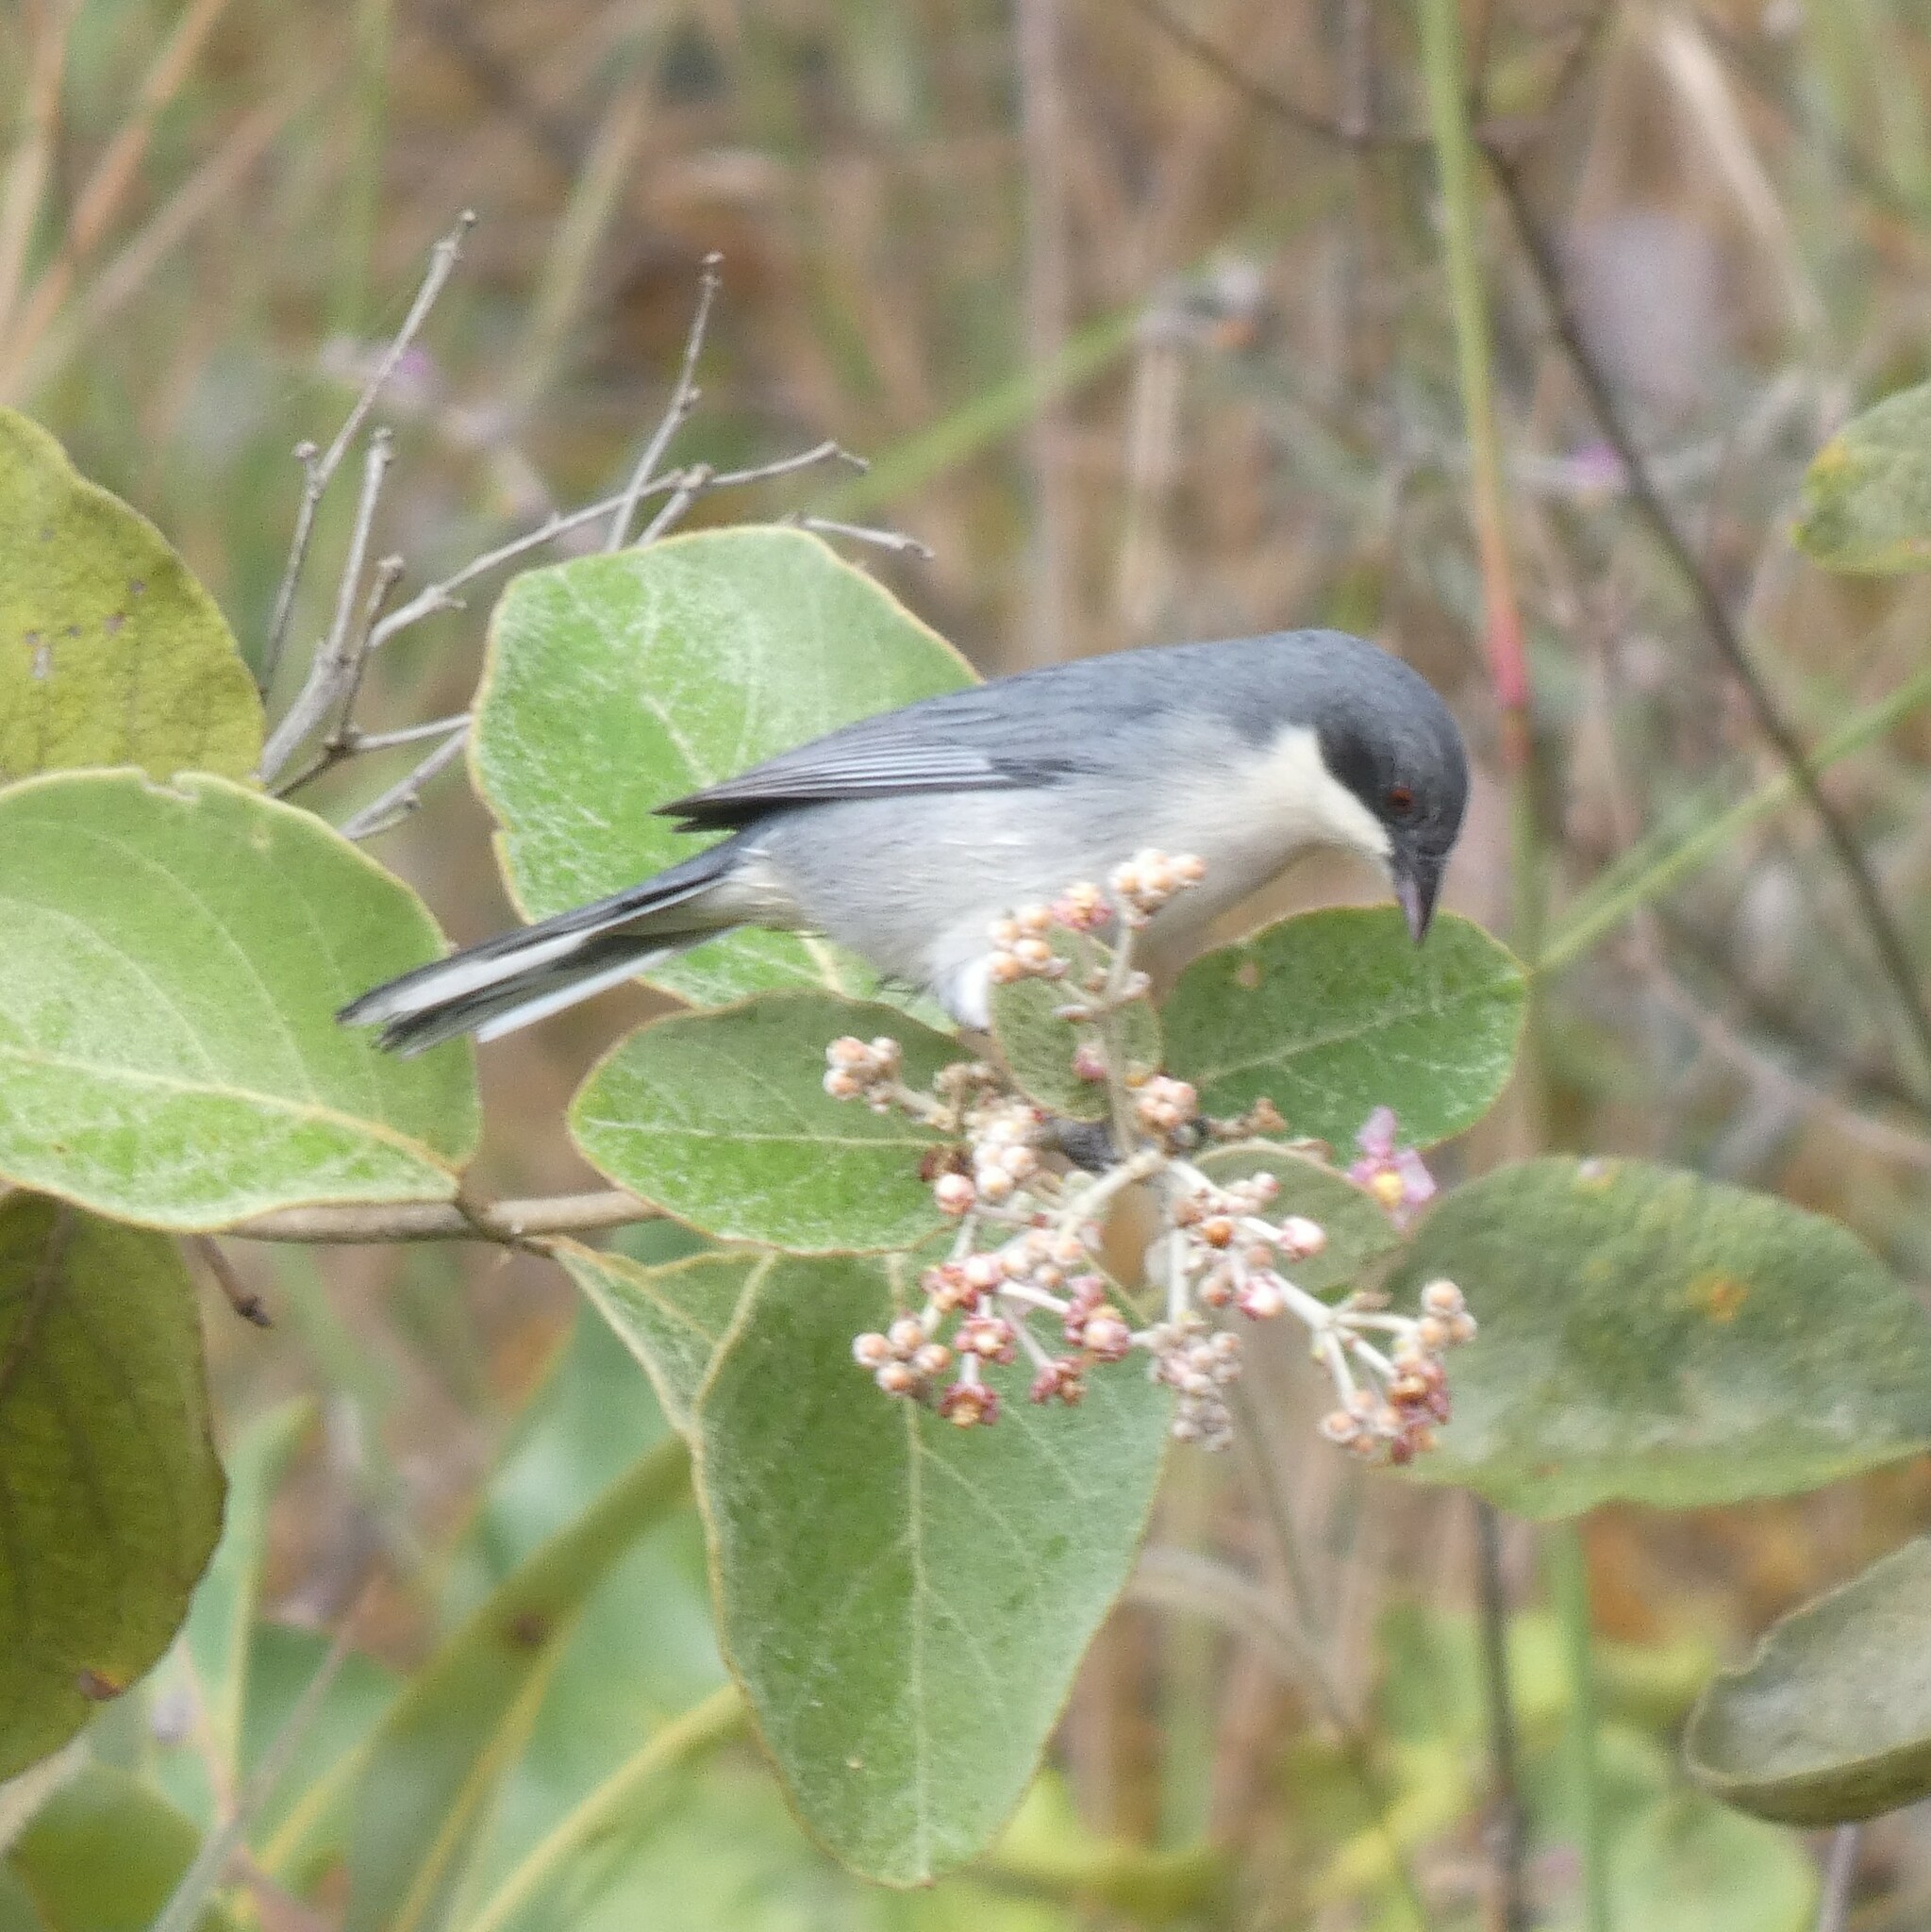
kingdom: Animalia
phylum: Chordata
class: Aves
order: Passeriformes
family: Thraupidae
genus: Microspingus
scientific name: Microspingus cinereus
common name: Cinereous warbling-finch
